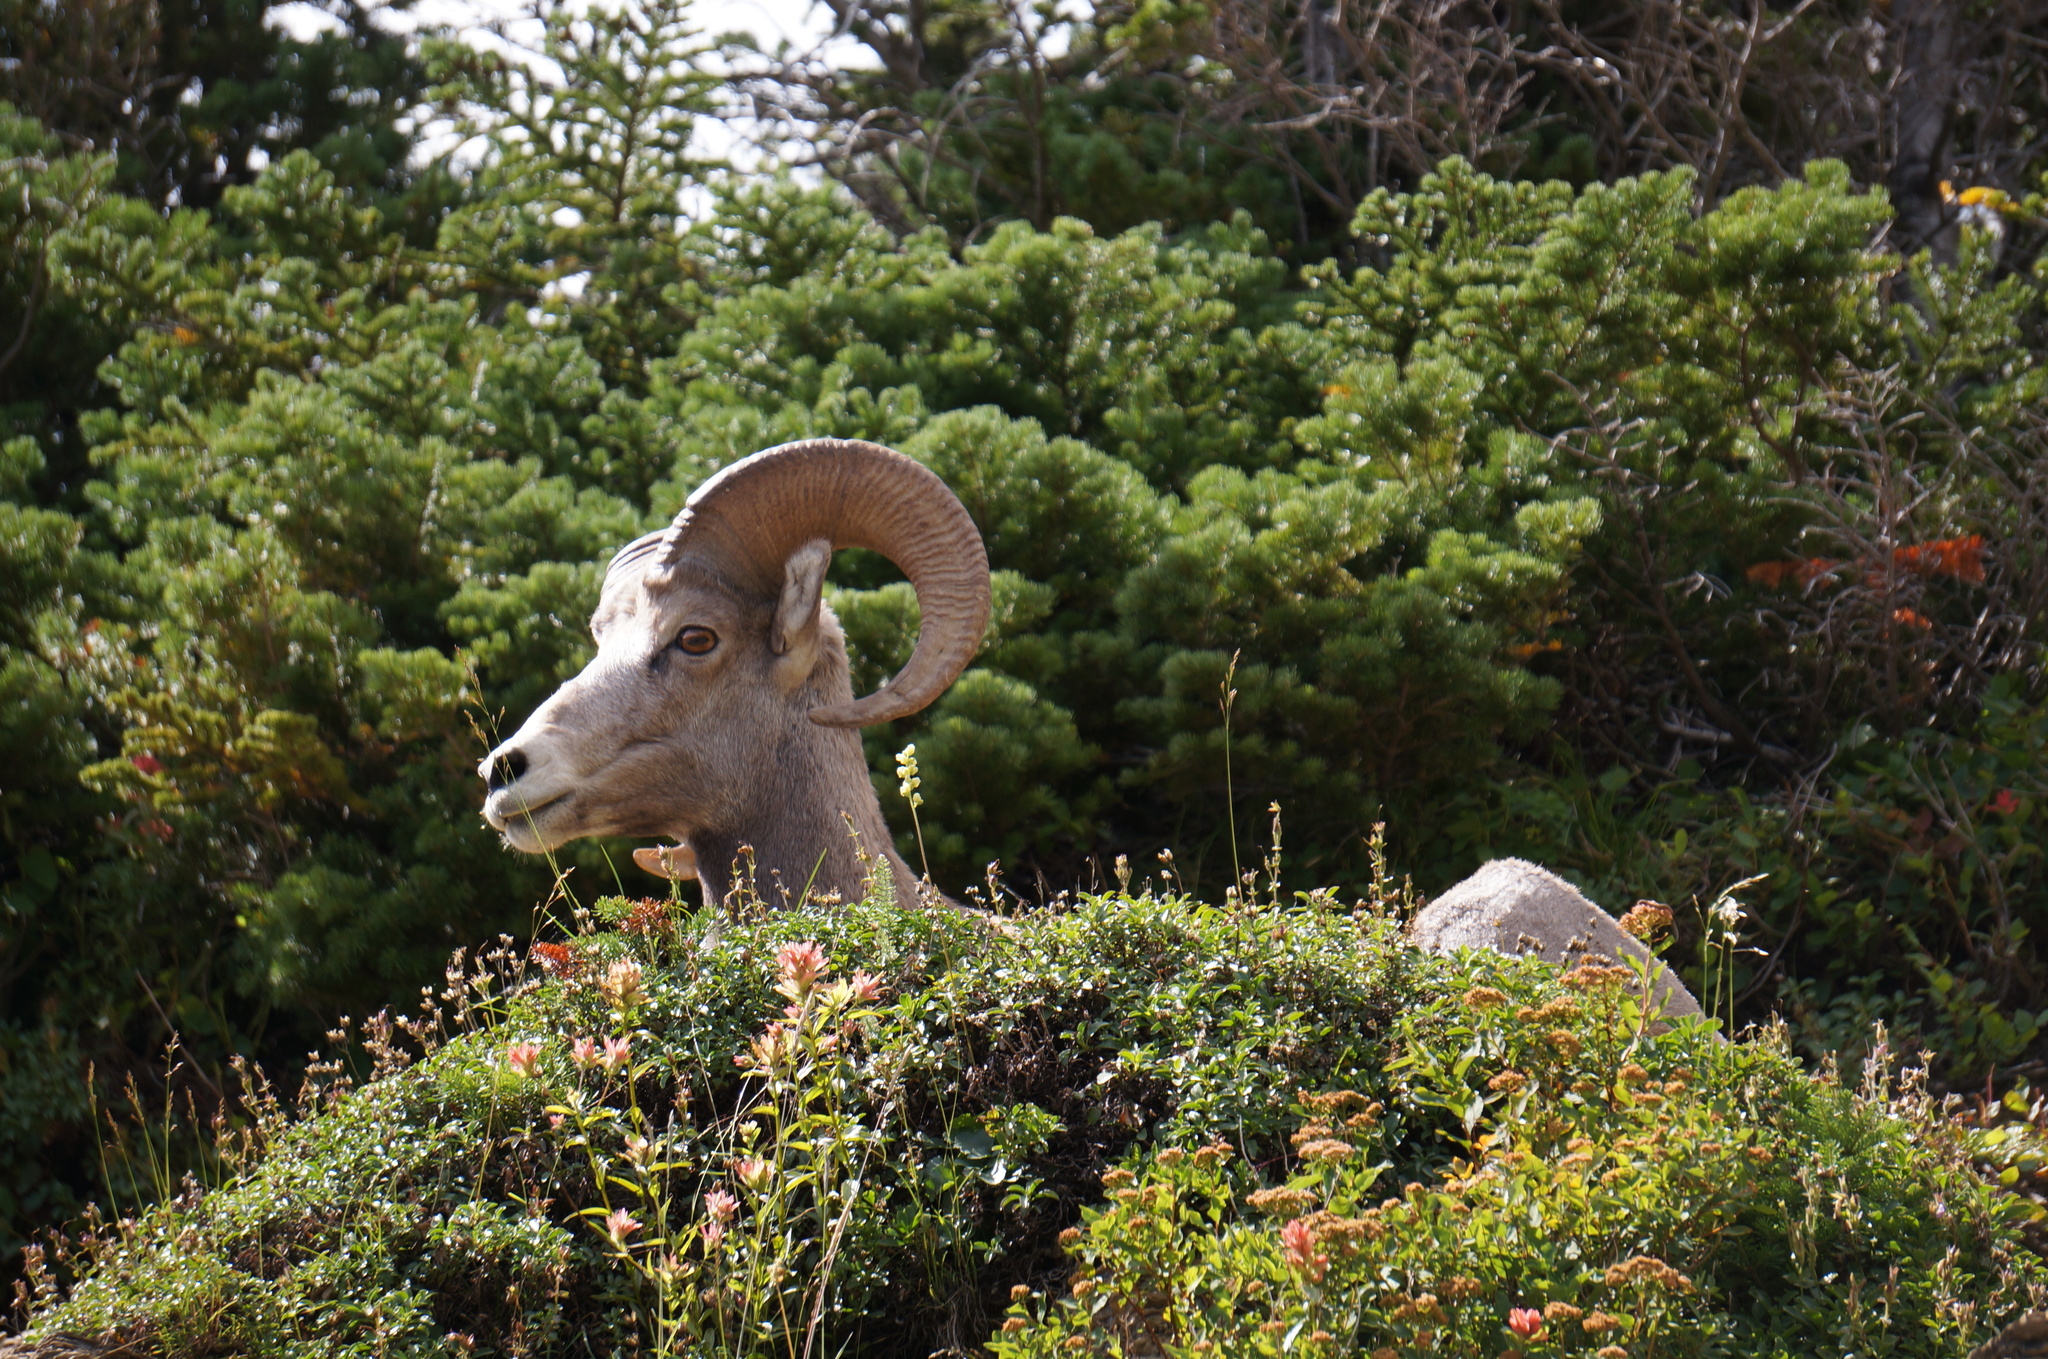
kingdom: Animalia
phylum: Chordata
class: Mammalia
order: Artiodactyla
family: Bovidae
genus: Ovis
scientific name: Ovis canadensis
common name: Bighorn sheep
